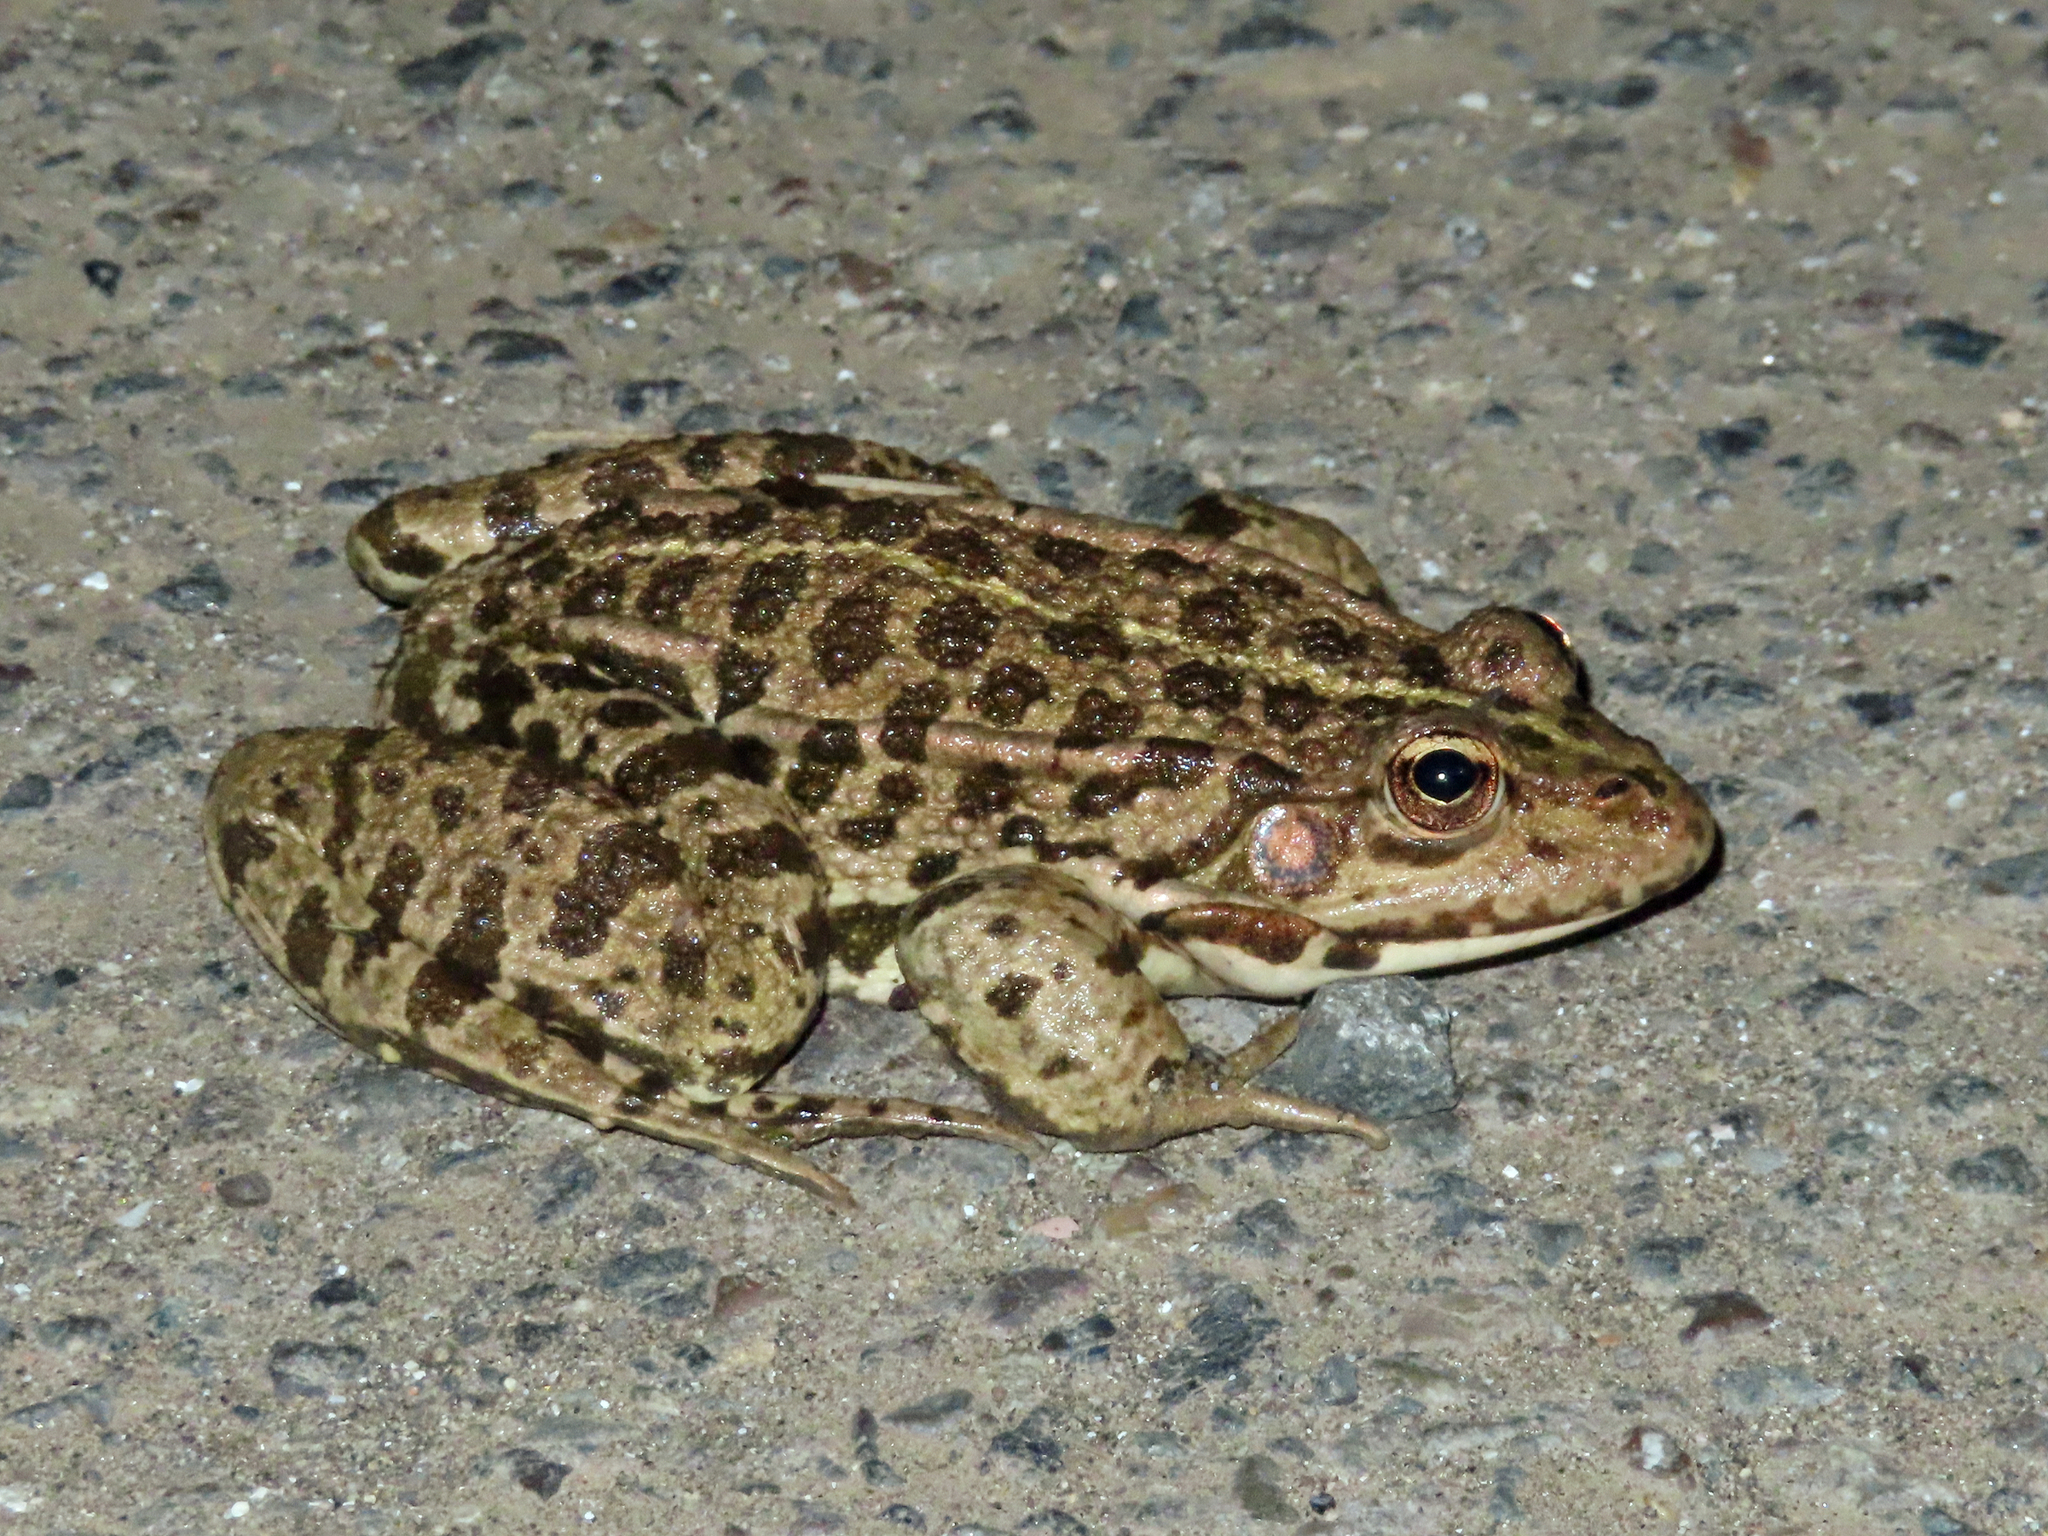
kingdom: Animalia
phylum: Chordata
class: Amphibia
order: Anura
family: Ranidae
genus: Pelophylax
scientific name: Pelophylax ridibundus
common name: Marsh frog
